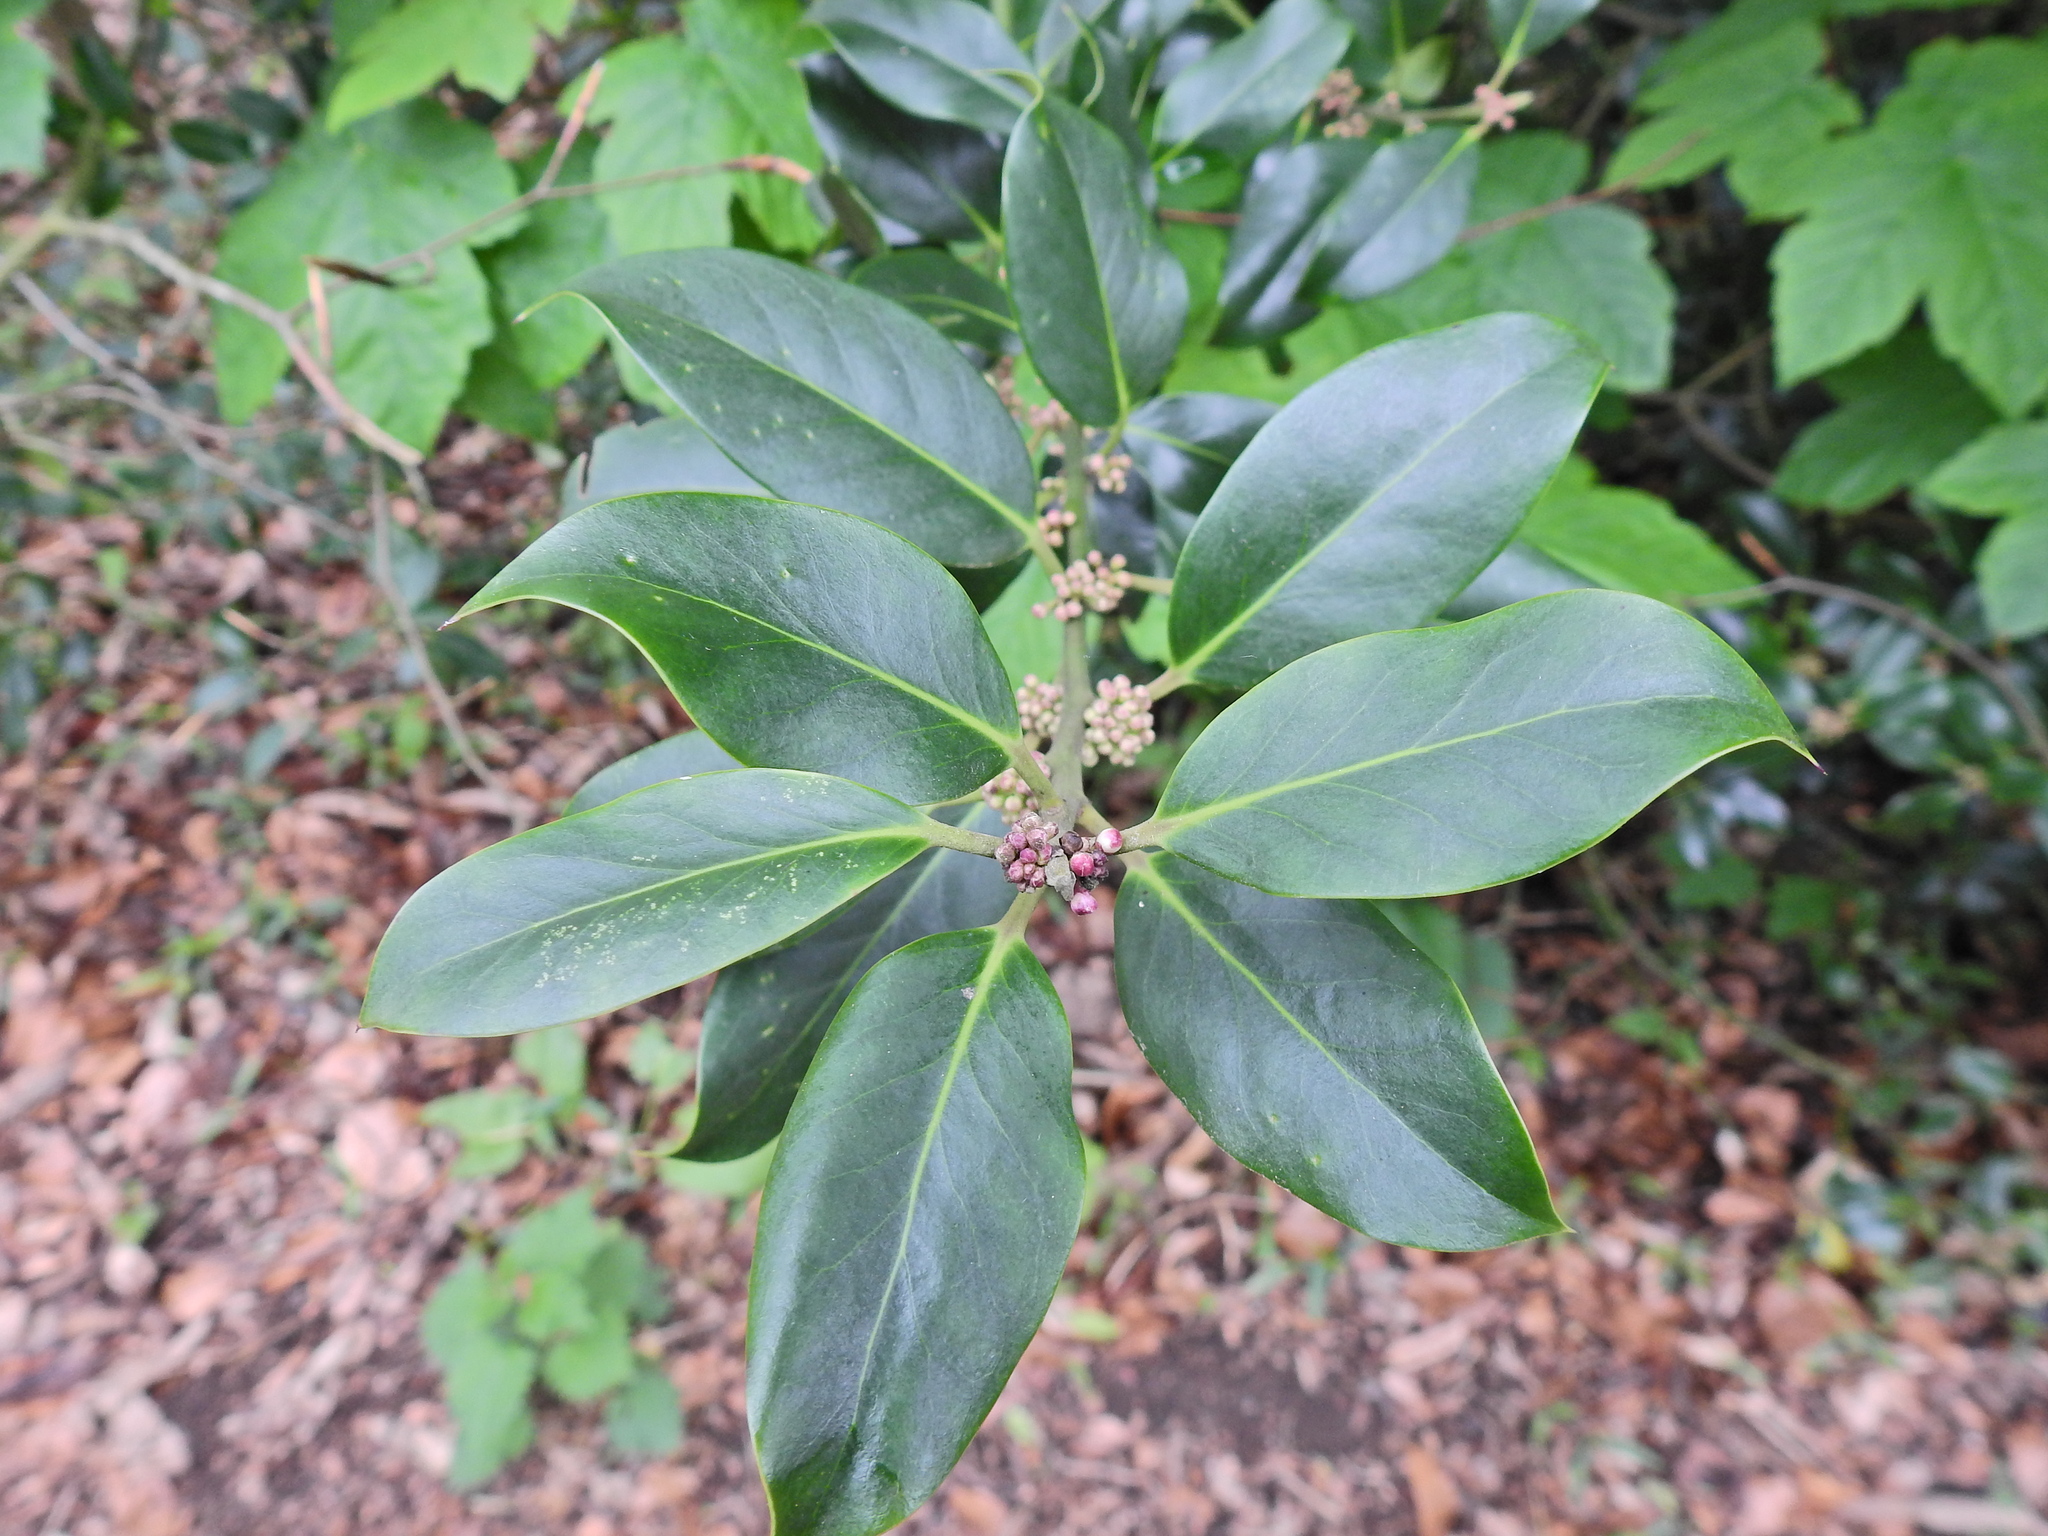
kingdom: Plantae
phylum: Tracheophyta
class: Magnoliopsida
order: Aquifoliales
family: Aquifoliaceae
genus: Ilex
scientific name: Ilex aquifolium
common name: English holly
